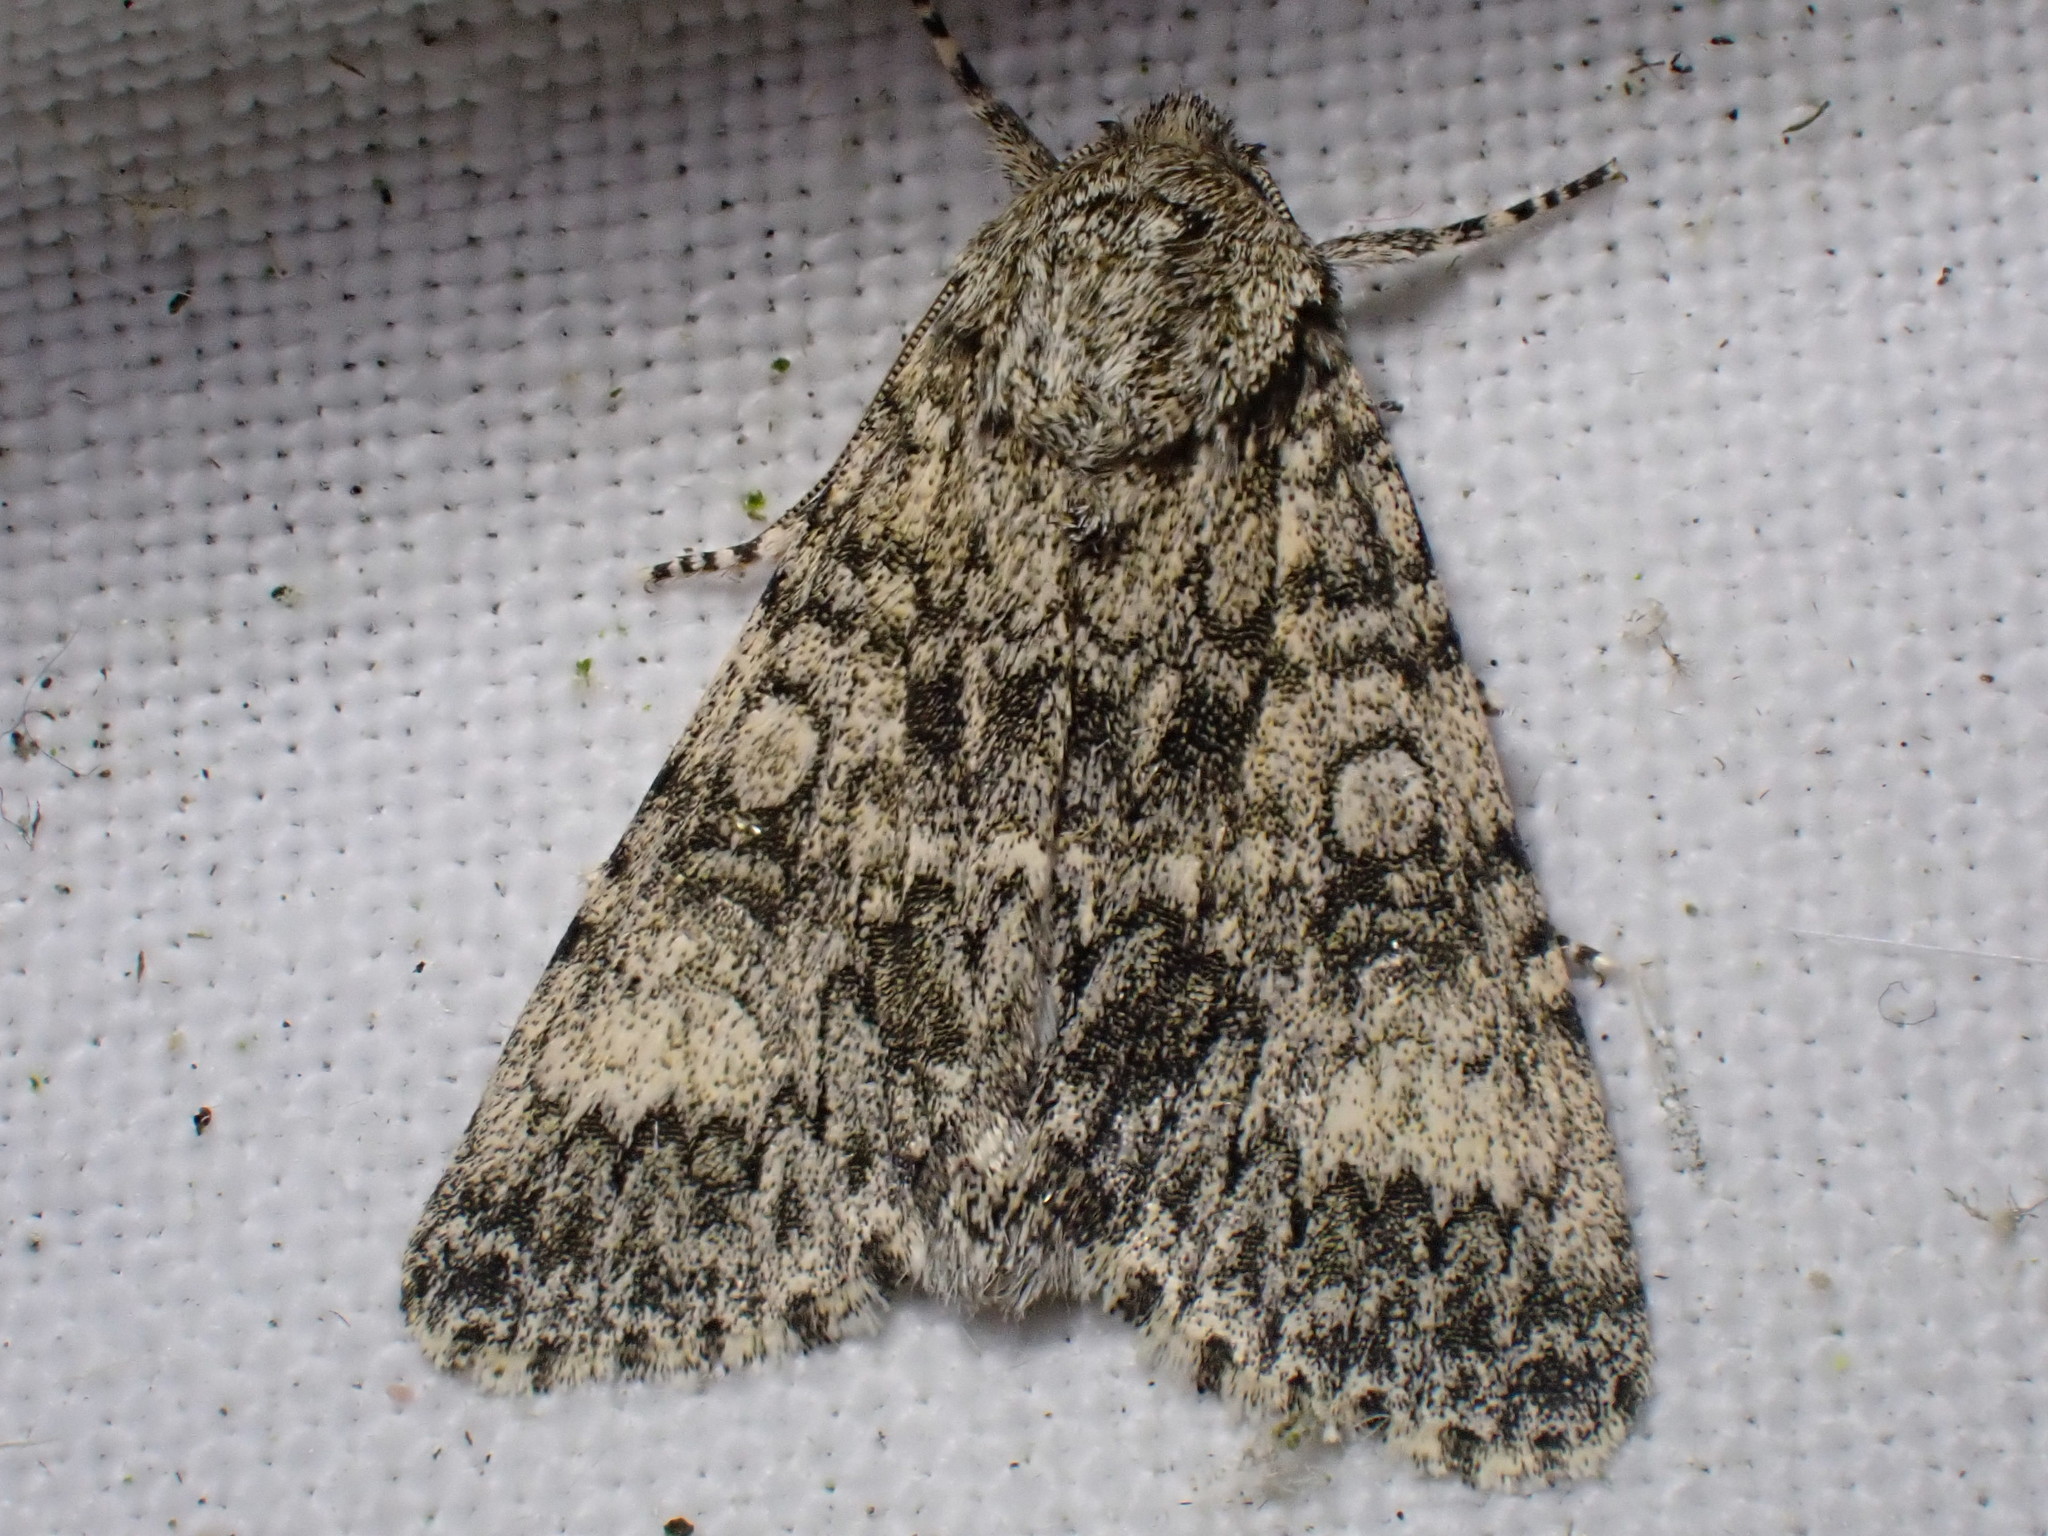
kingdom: Animalia
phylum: Arthropoda
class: Insecta
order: Lepidoptera
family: Noctuidae
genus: Acronicta
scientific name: Acronicta megacephala
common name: Poplar grey
